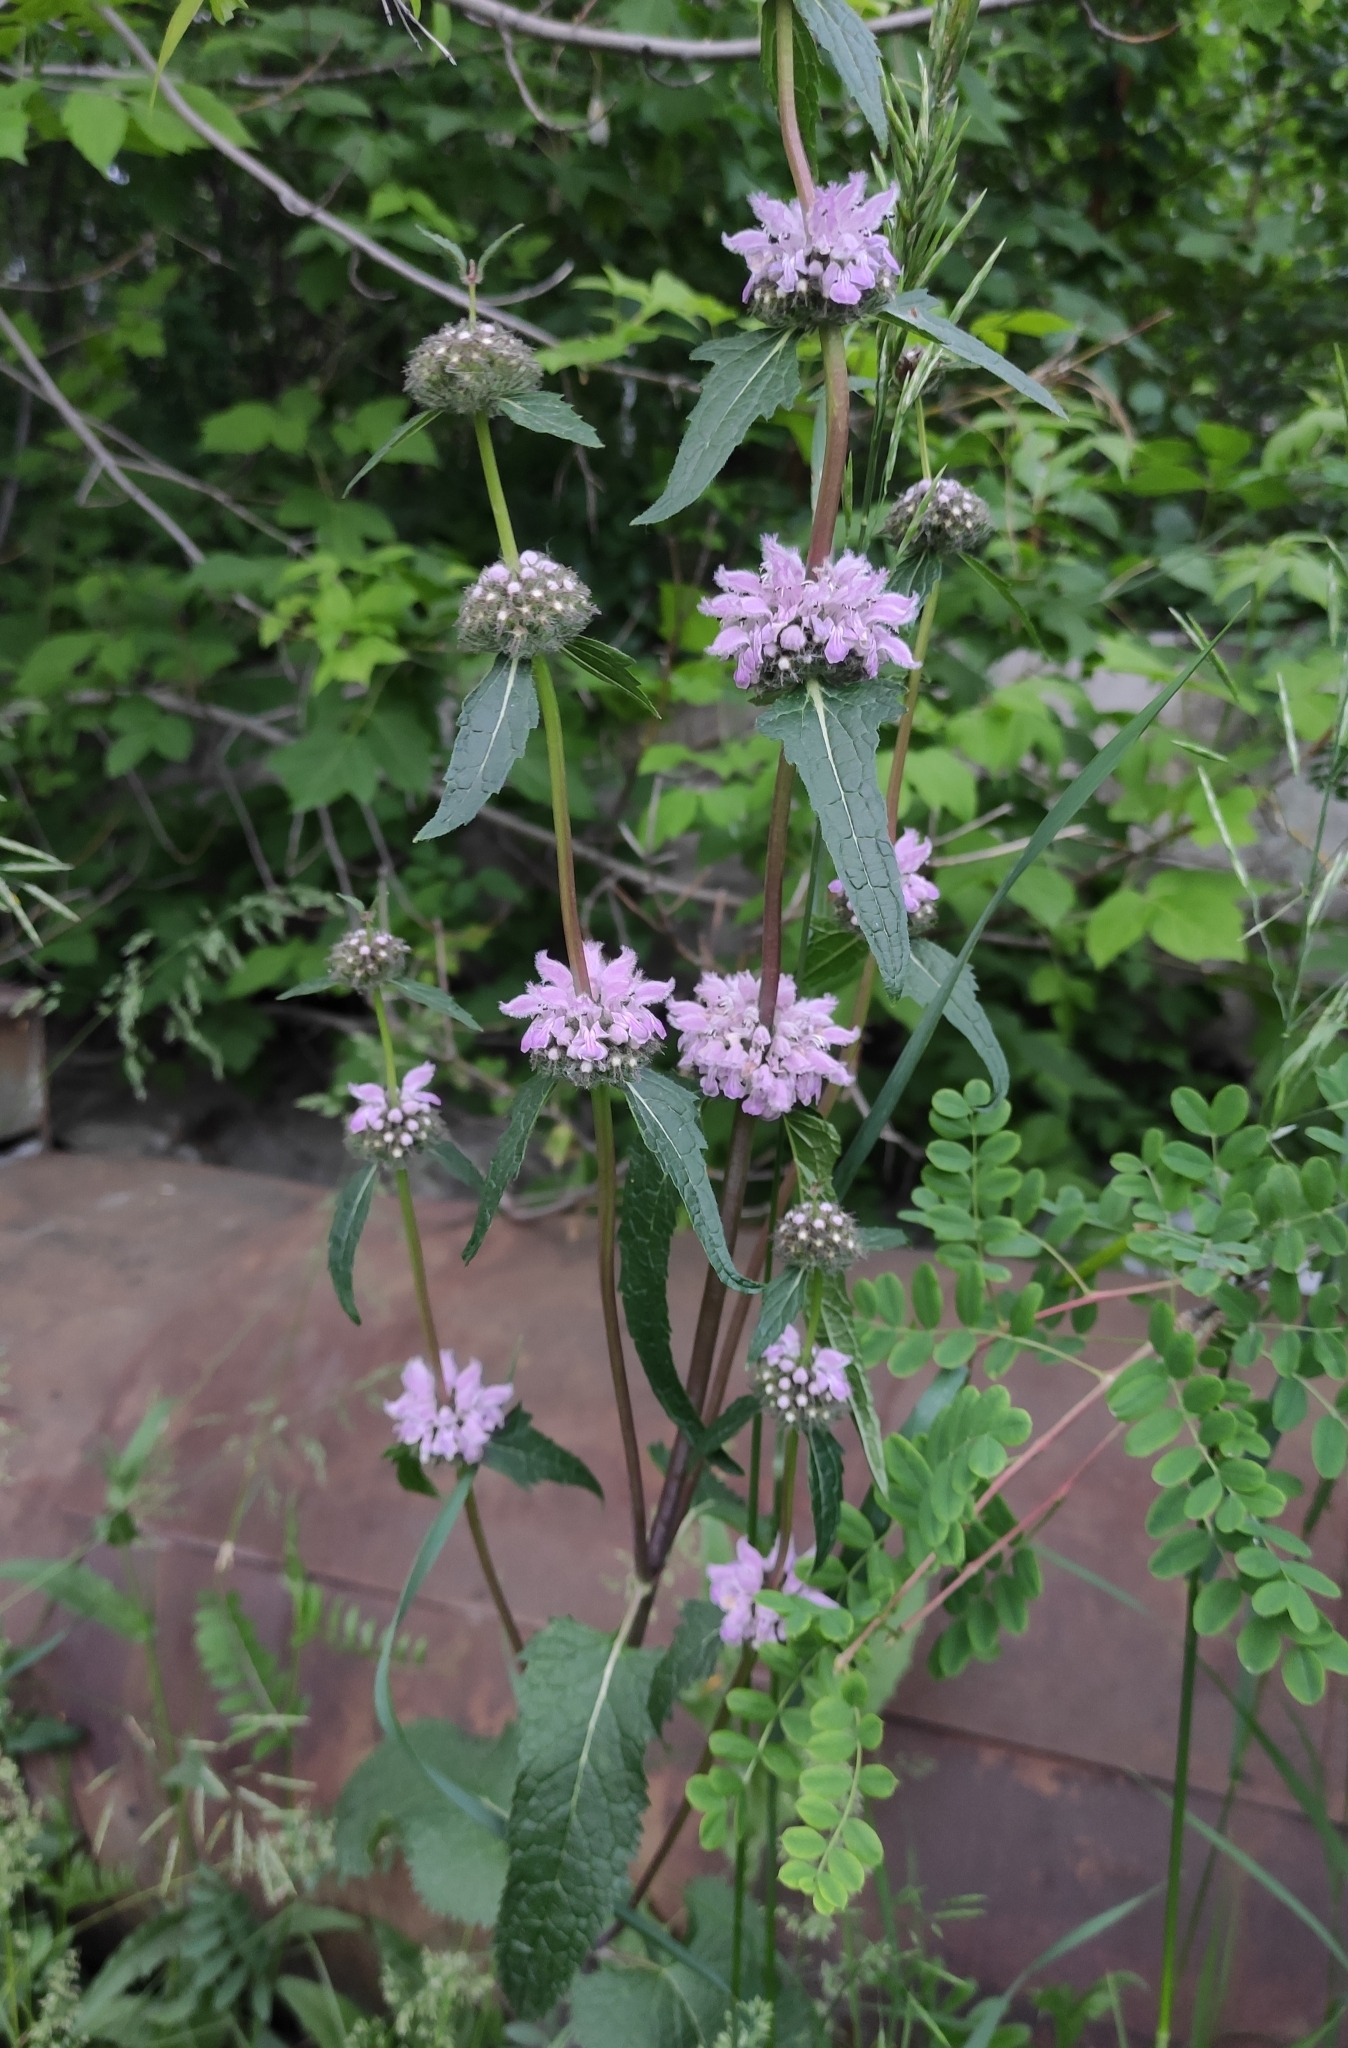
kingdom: Plantae
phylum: Tracheophyta
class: Magnoliopsida
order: Lamiales
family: Lamiaceae
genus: Phlomoides
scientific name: Phlomoides tuberosa
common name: Tuberous jerusalem sage
